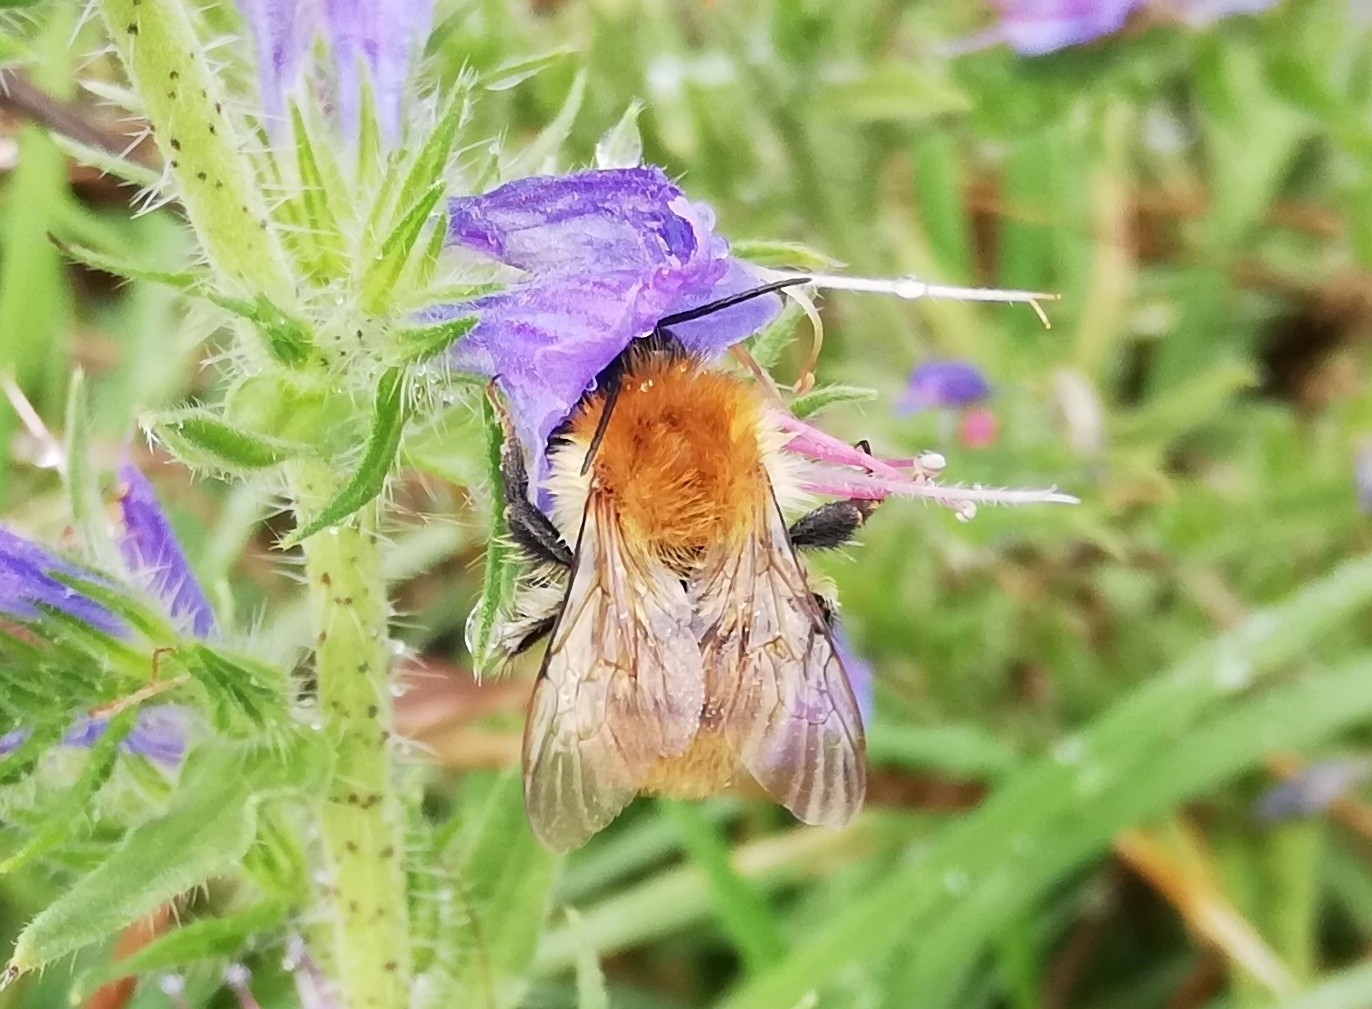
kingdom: Animalia
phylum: Arthropoda
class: Insecta
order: Hymenoptera
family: Apidae
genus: Bombus
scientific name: Bombus pascuorum
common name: Common carder bee
